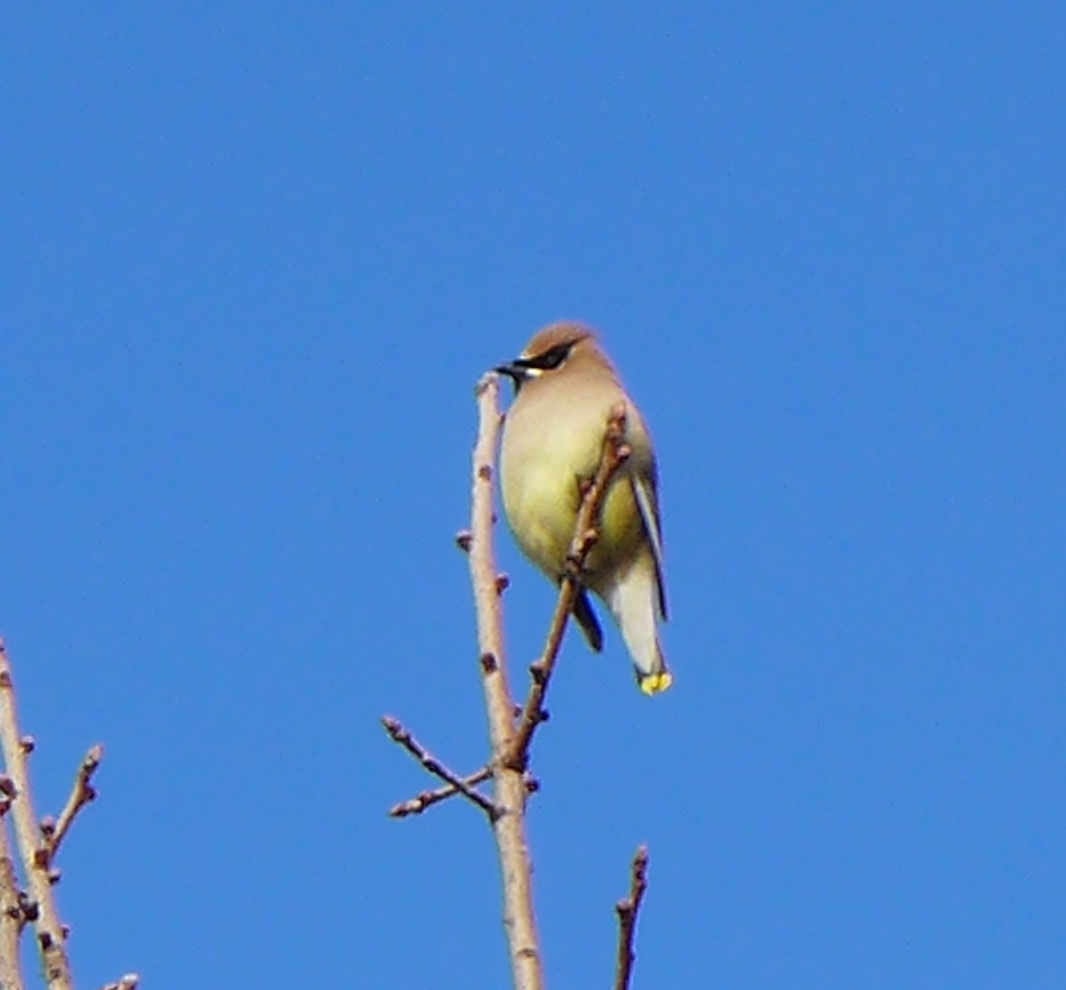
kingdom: Animalia
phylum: Chordata
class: Aves
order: Passeriformes
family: Bombycillidae
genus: Bombycilla
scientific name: Bombycilla cedrorum
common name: Cedar waxwing
